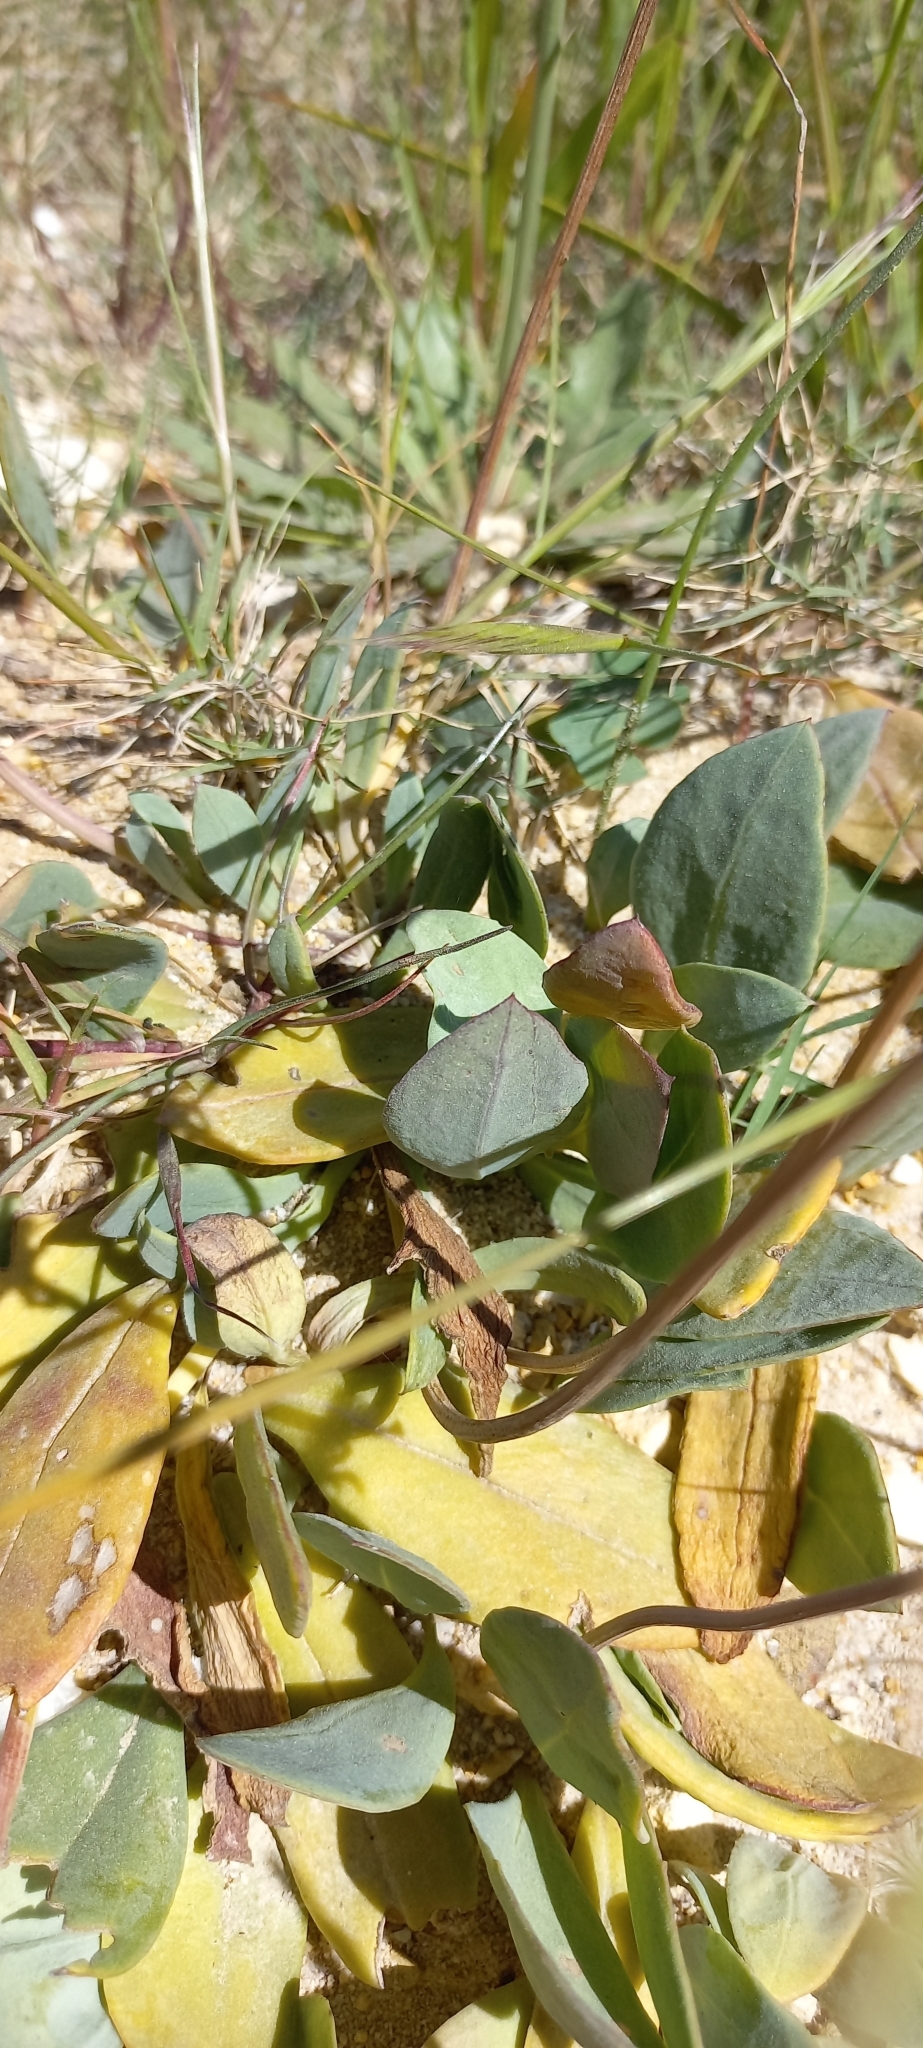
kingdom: Plantae
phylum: Tracheophyta
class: Magnoliopsida
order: Asterales
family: Asteraceae
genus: Othonna
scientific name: Othonna bulbosa
